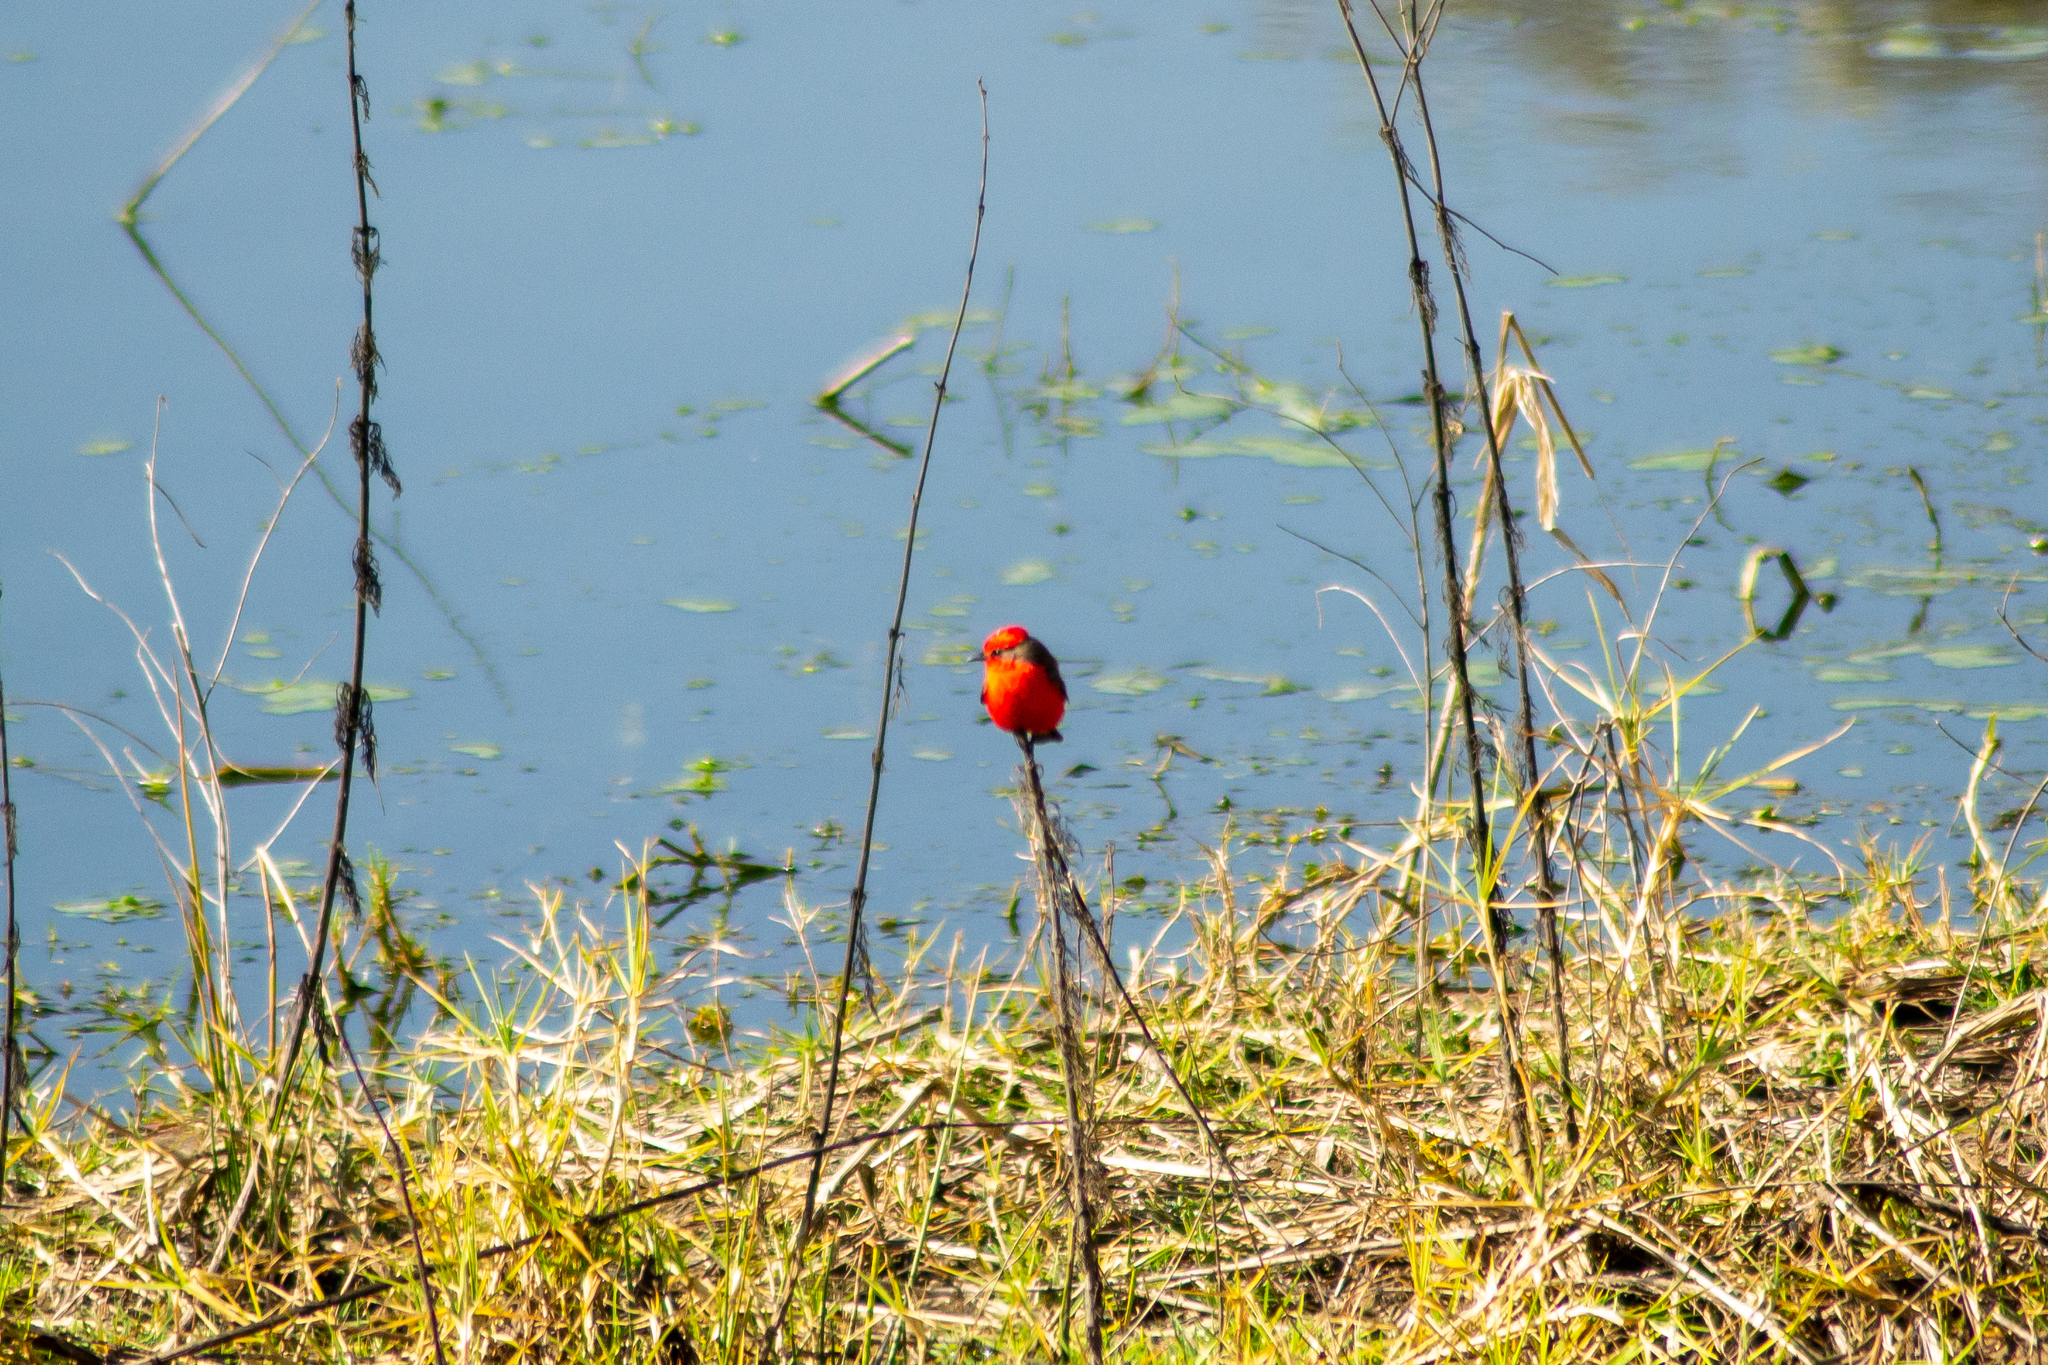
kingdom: Animalia
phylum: Chordata
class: Aves
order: Passeriformes
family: Tyrannidae
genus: Pyrocephalus
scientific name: Pyrocephalus rubinus
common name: Vermilion flycatcher
